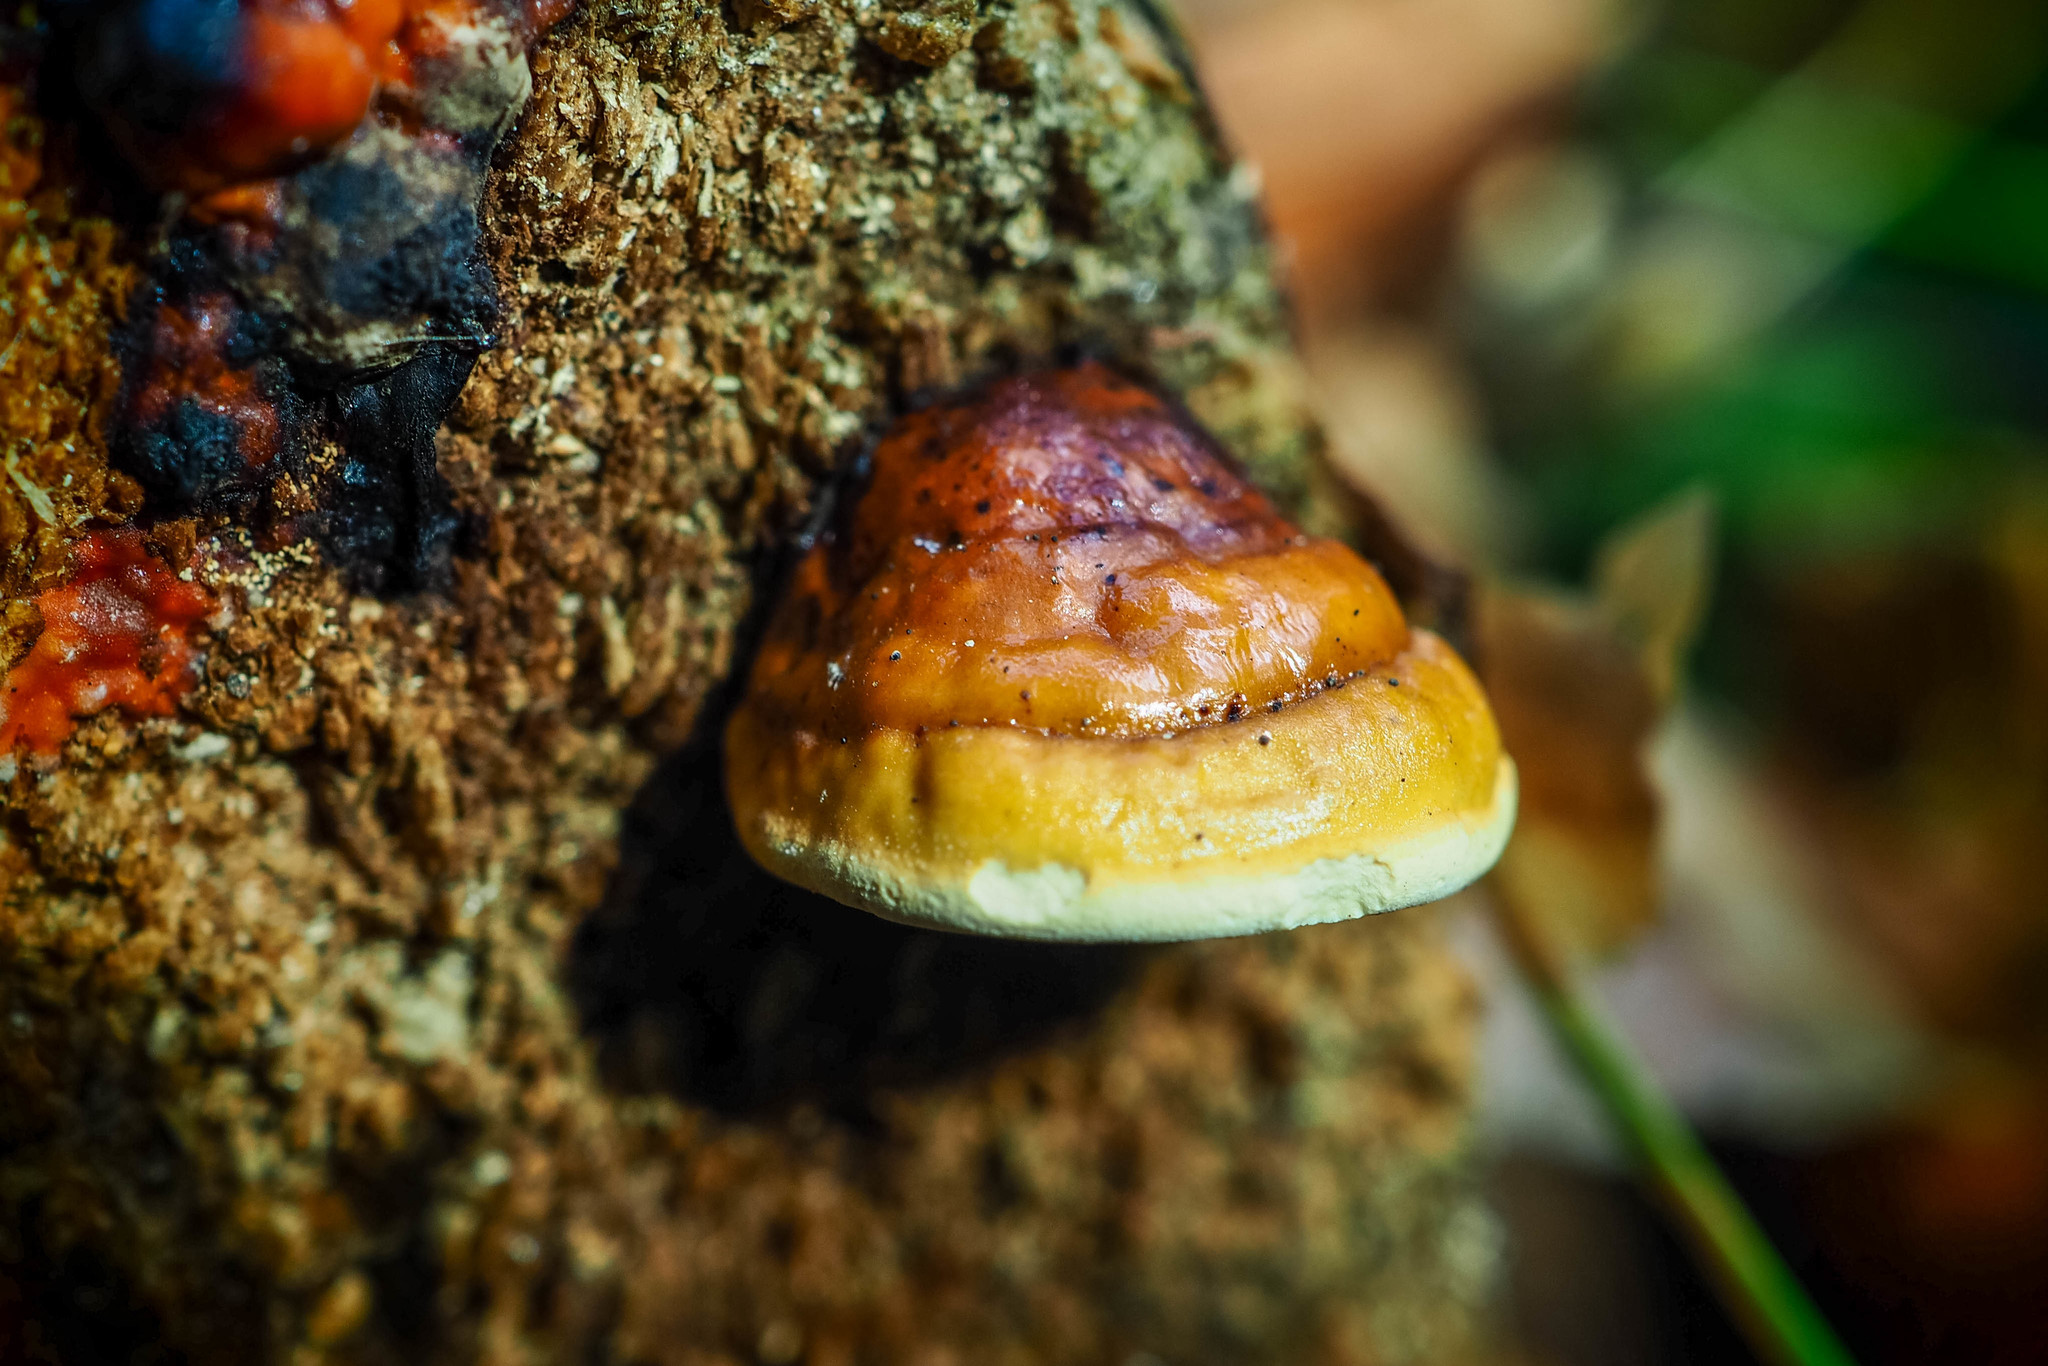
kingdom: Fungi
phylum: Basidiomycota
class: Agaricomycetes
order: Polyporales
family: Fomitopsidaceae
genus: Fomitopsis
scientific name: Fomitopsis pinicola
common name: Red-belted bracket
